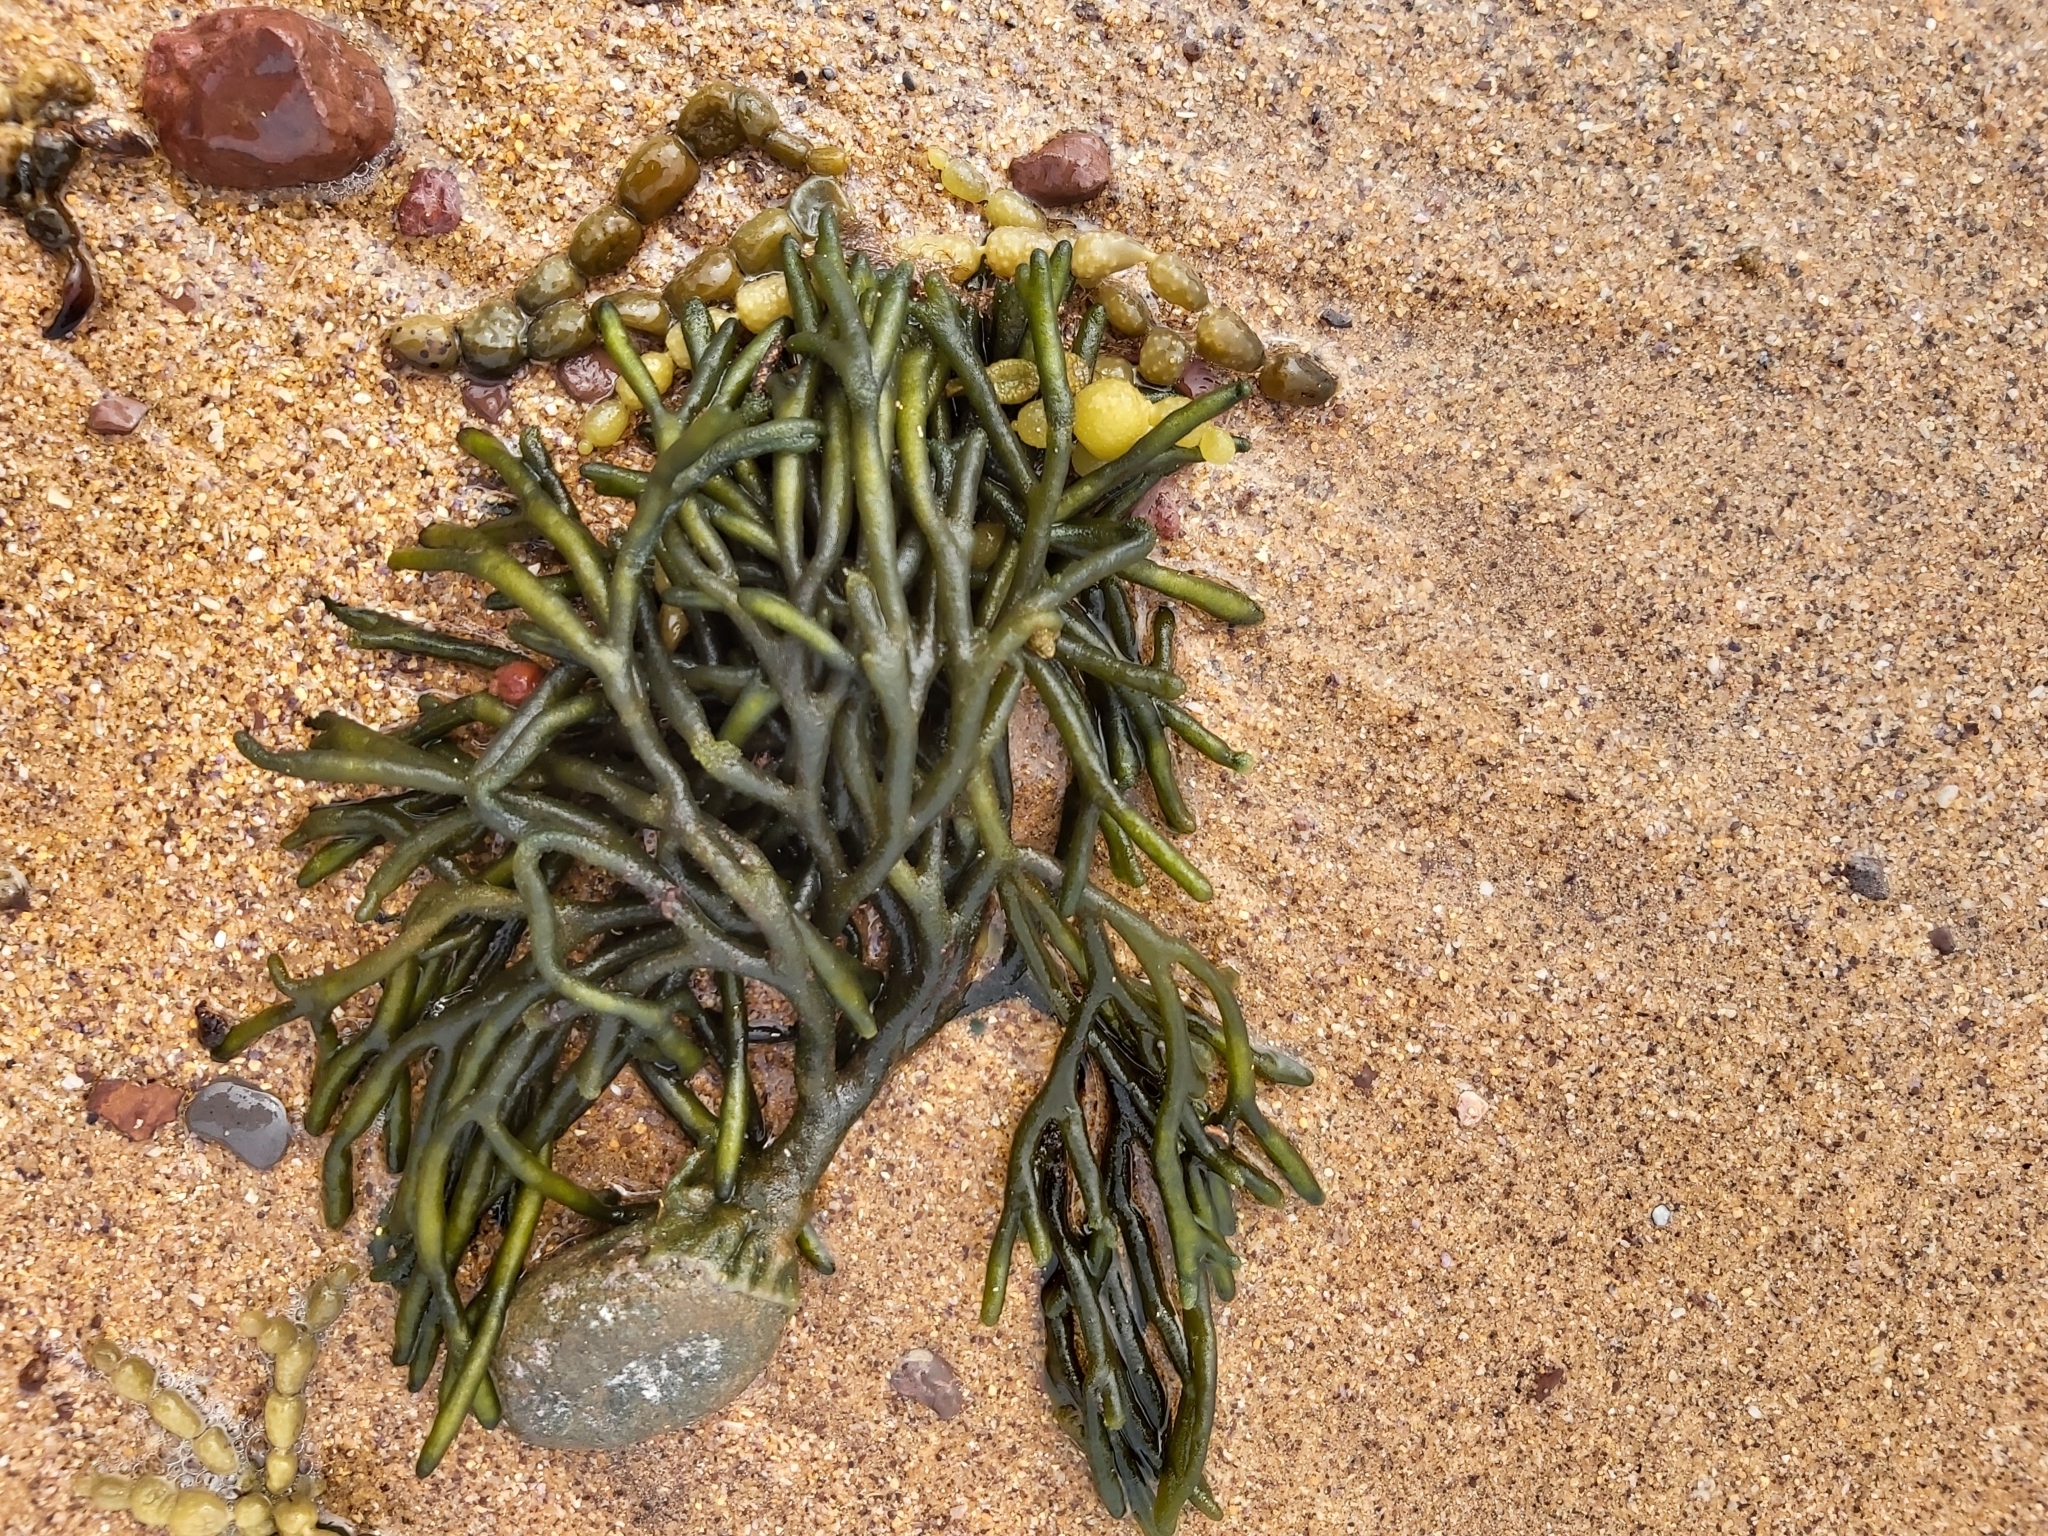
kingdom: Plantae
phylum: Chlorophyta
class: Ulvophyceae
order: Bryopsidales
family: Codiaceae
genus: Codium
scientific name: Codium fragile
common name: Dead man's fingers
